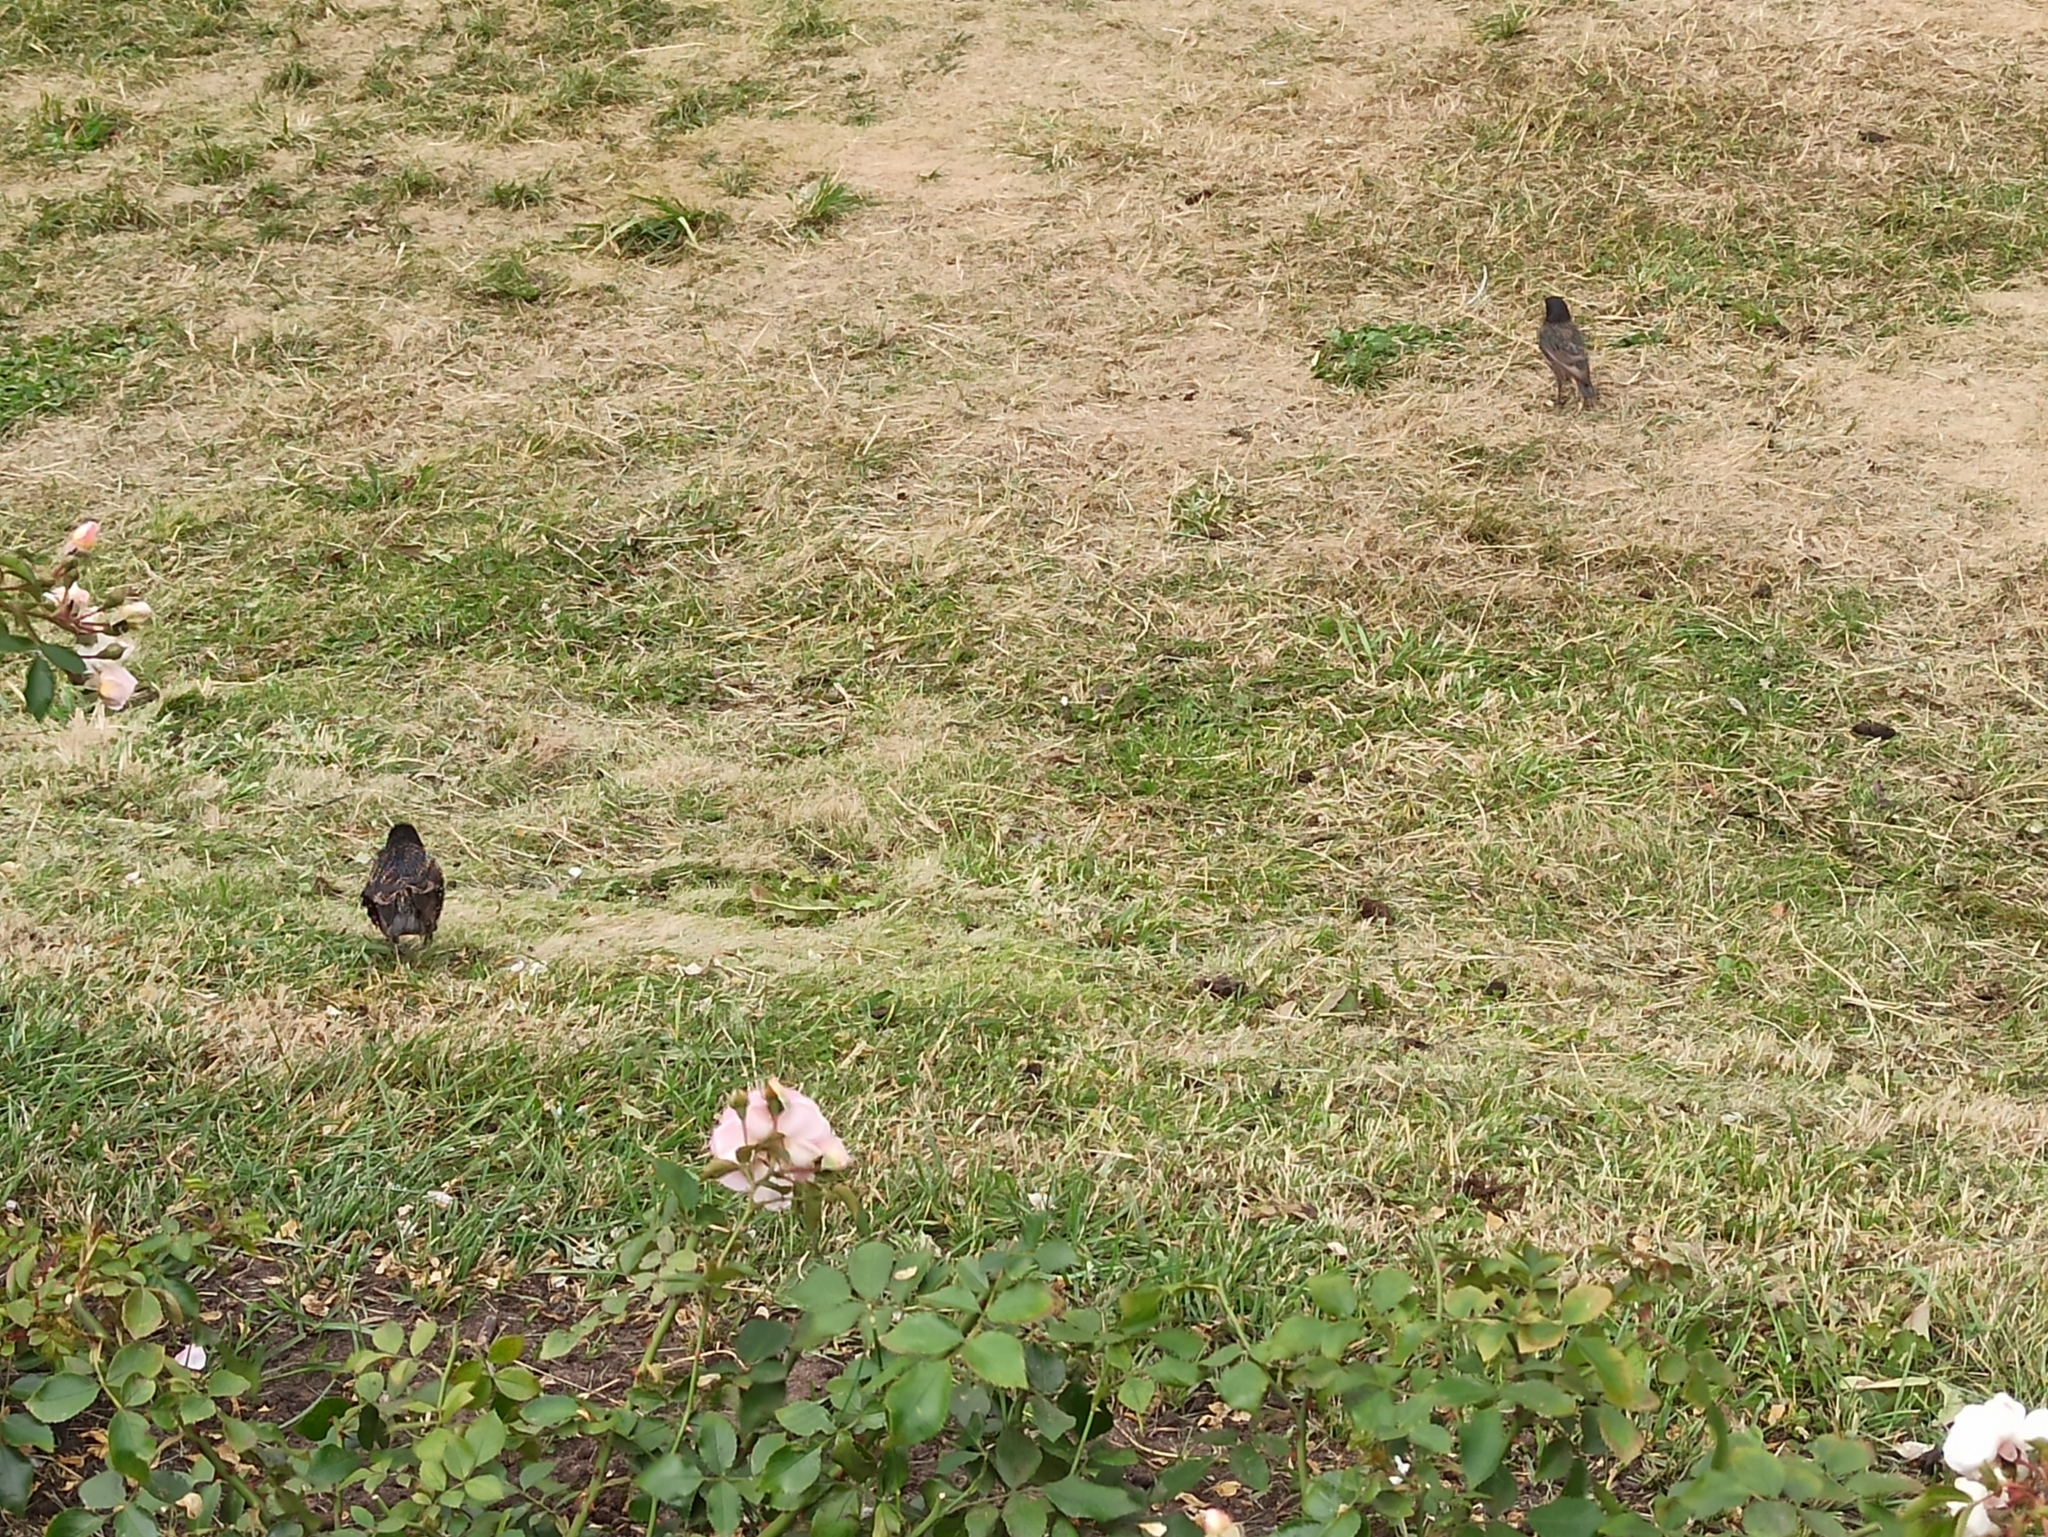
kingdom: Animalia
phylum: Chordata
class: Aves
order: Passeriformes
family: Sturnidae
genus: Sturnus
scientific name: Sturnus vulgaris
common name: Common starling
